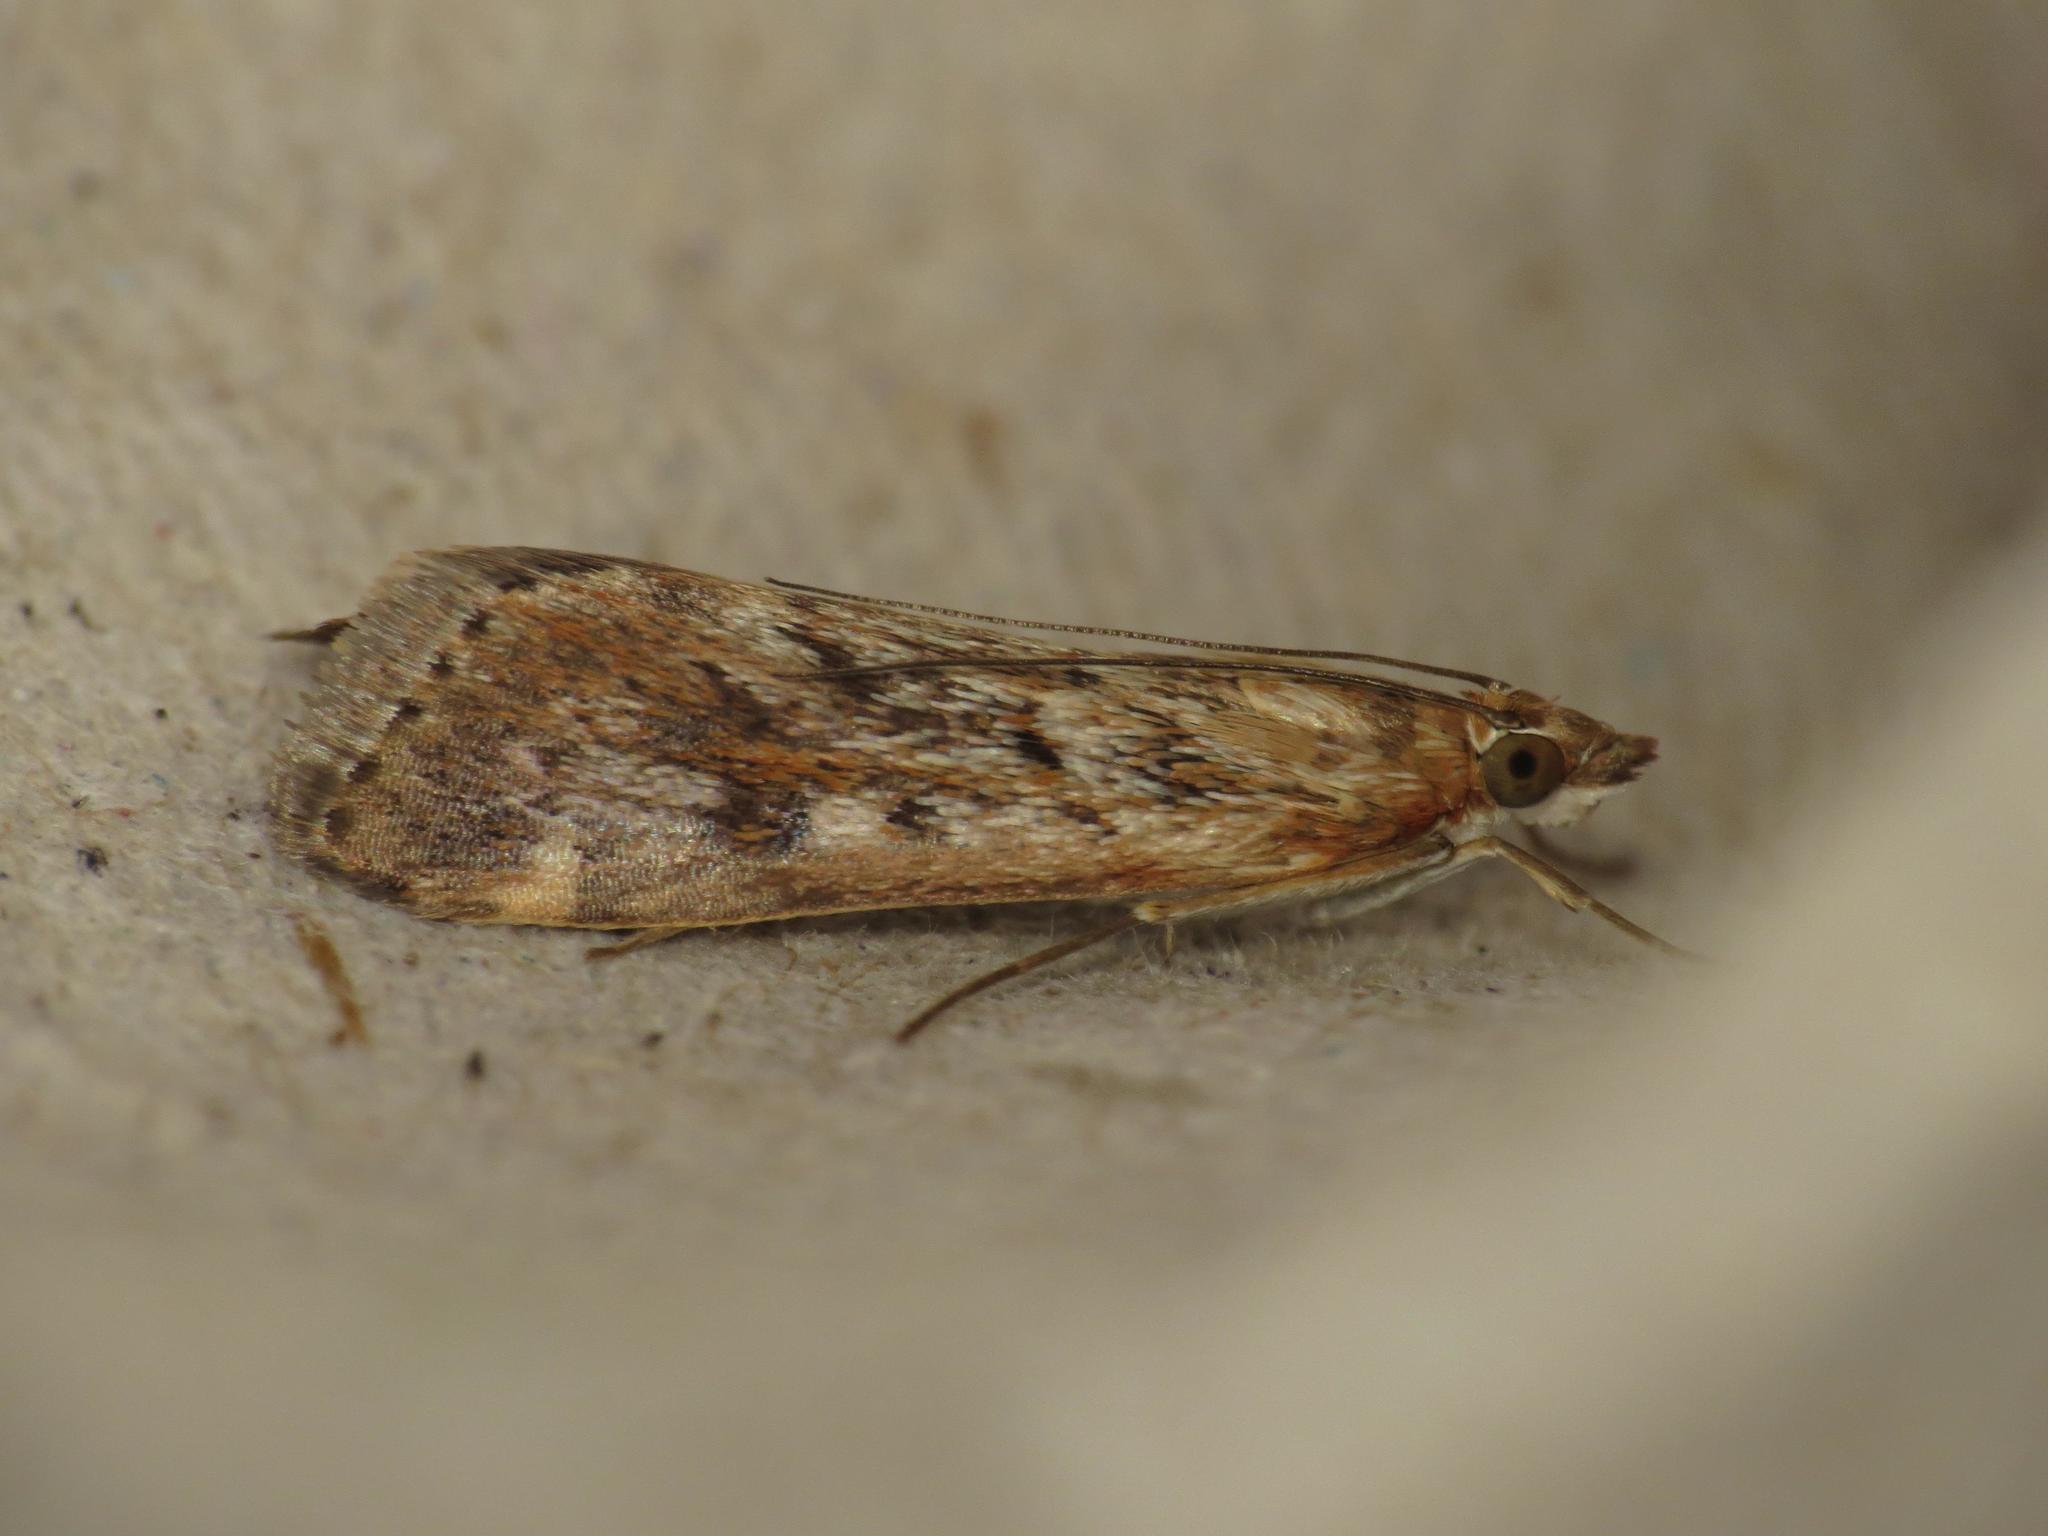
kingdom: Animalia
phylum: Arthropoda
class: Insecta
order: Lepidoptera
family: Crambidae
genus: Achyra
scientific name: Achyra affinitalis
